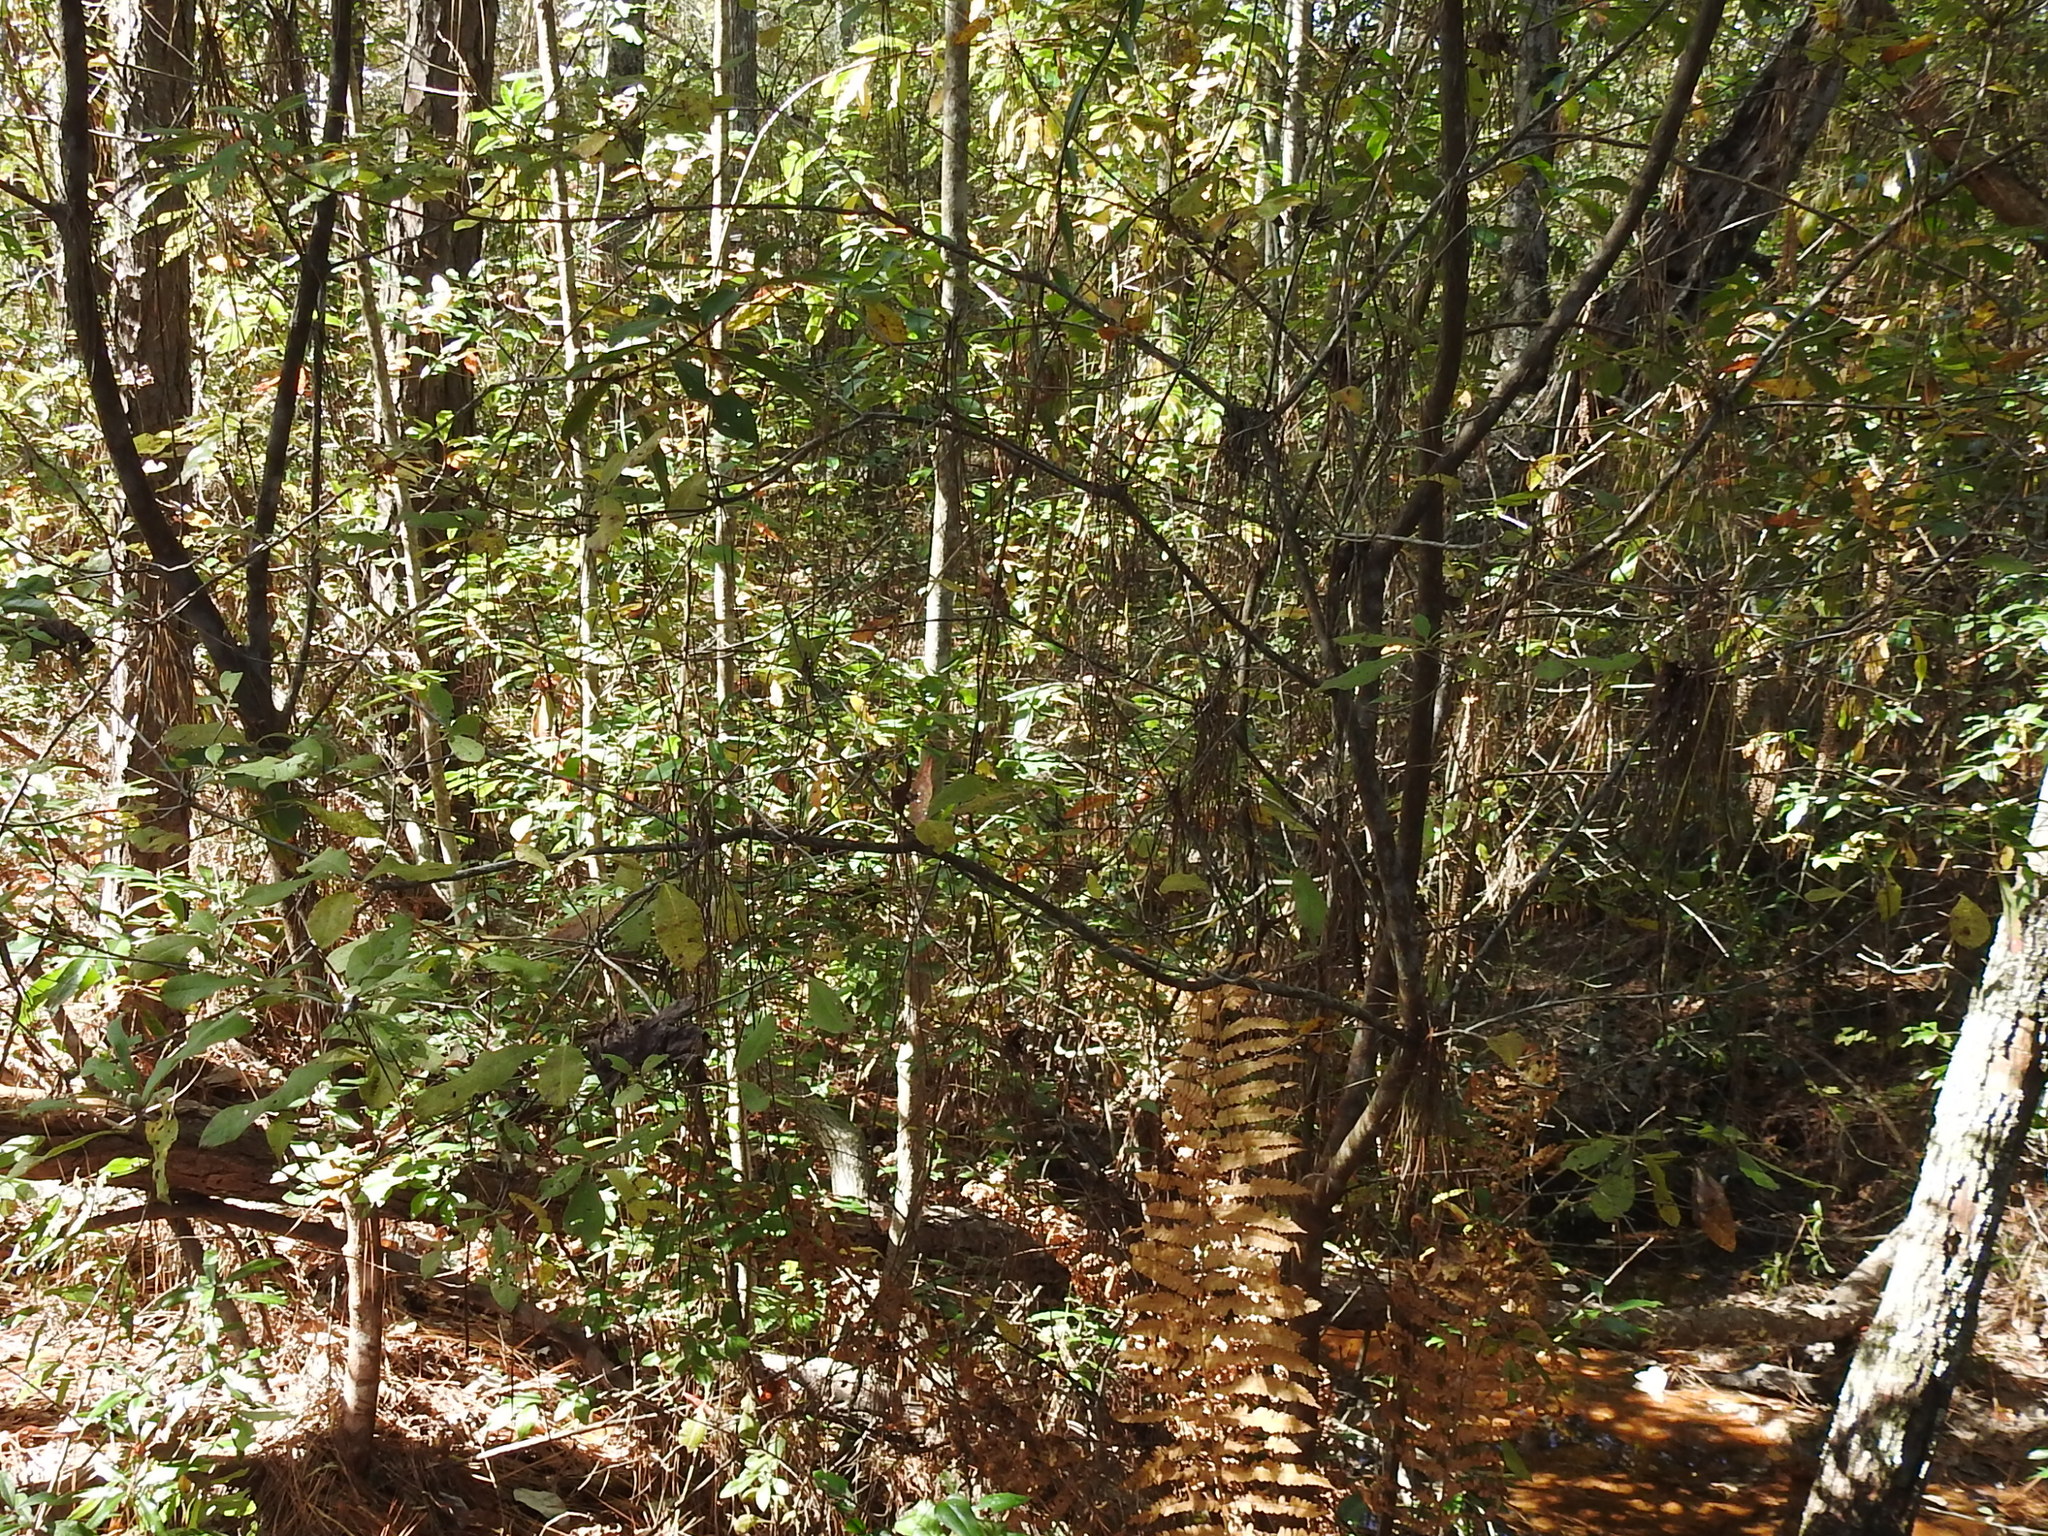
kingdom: Plantae
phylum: Tracheophyta
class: Magnoliopsida
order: Ericales
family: Ericaceae
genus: Rhododendron
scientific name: Rhododendron viscosum
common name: Clammy azalea
